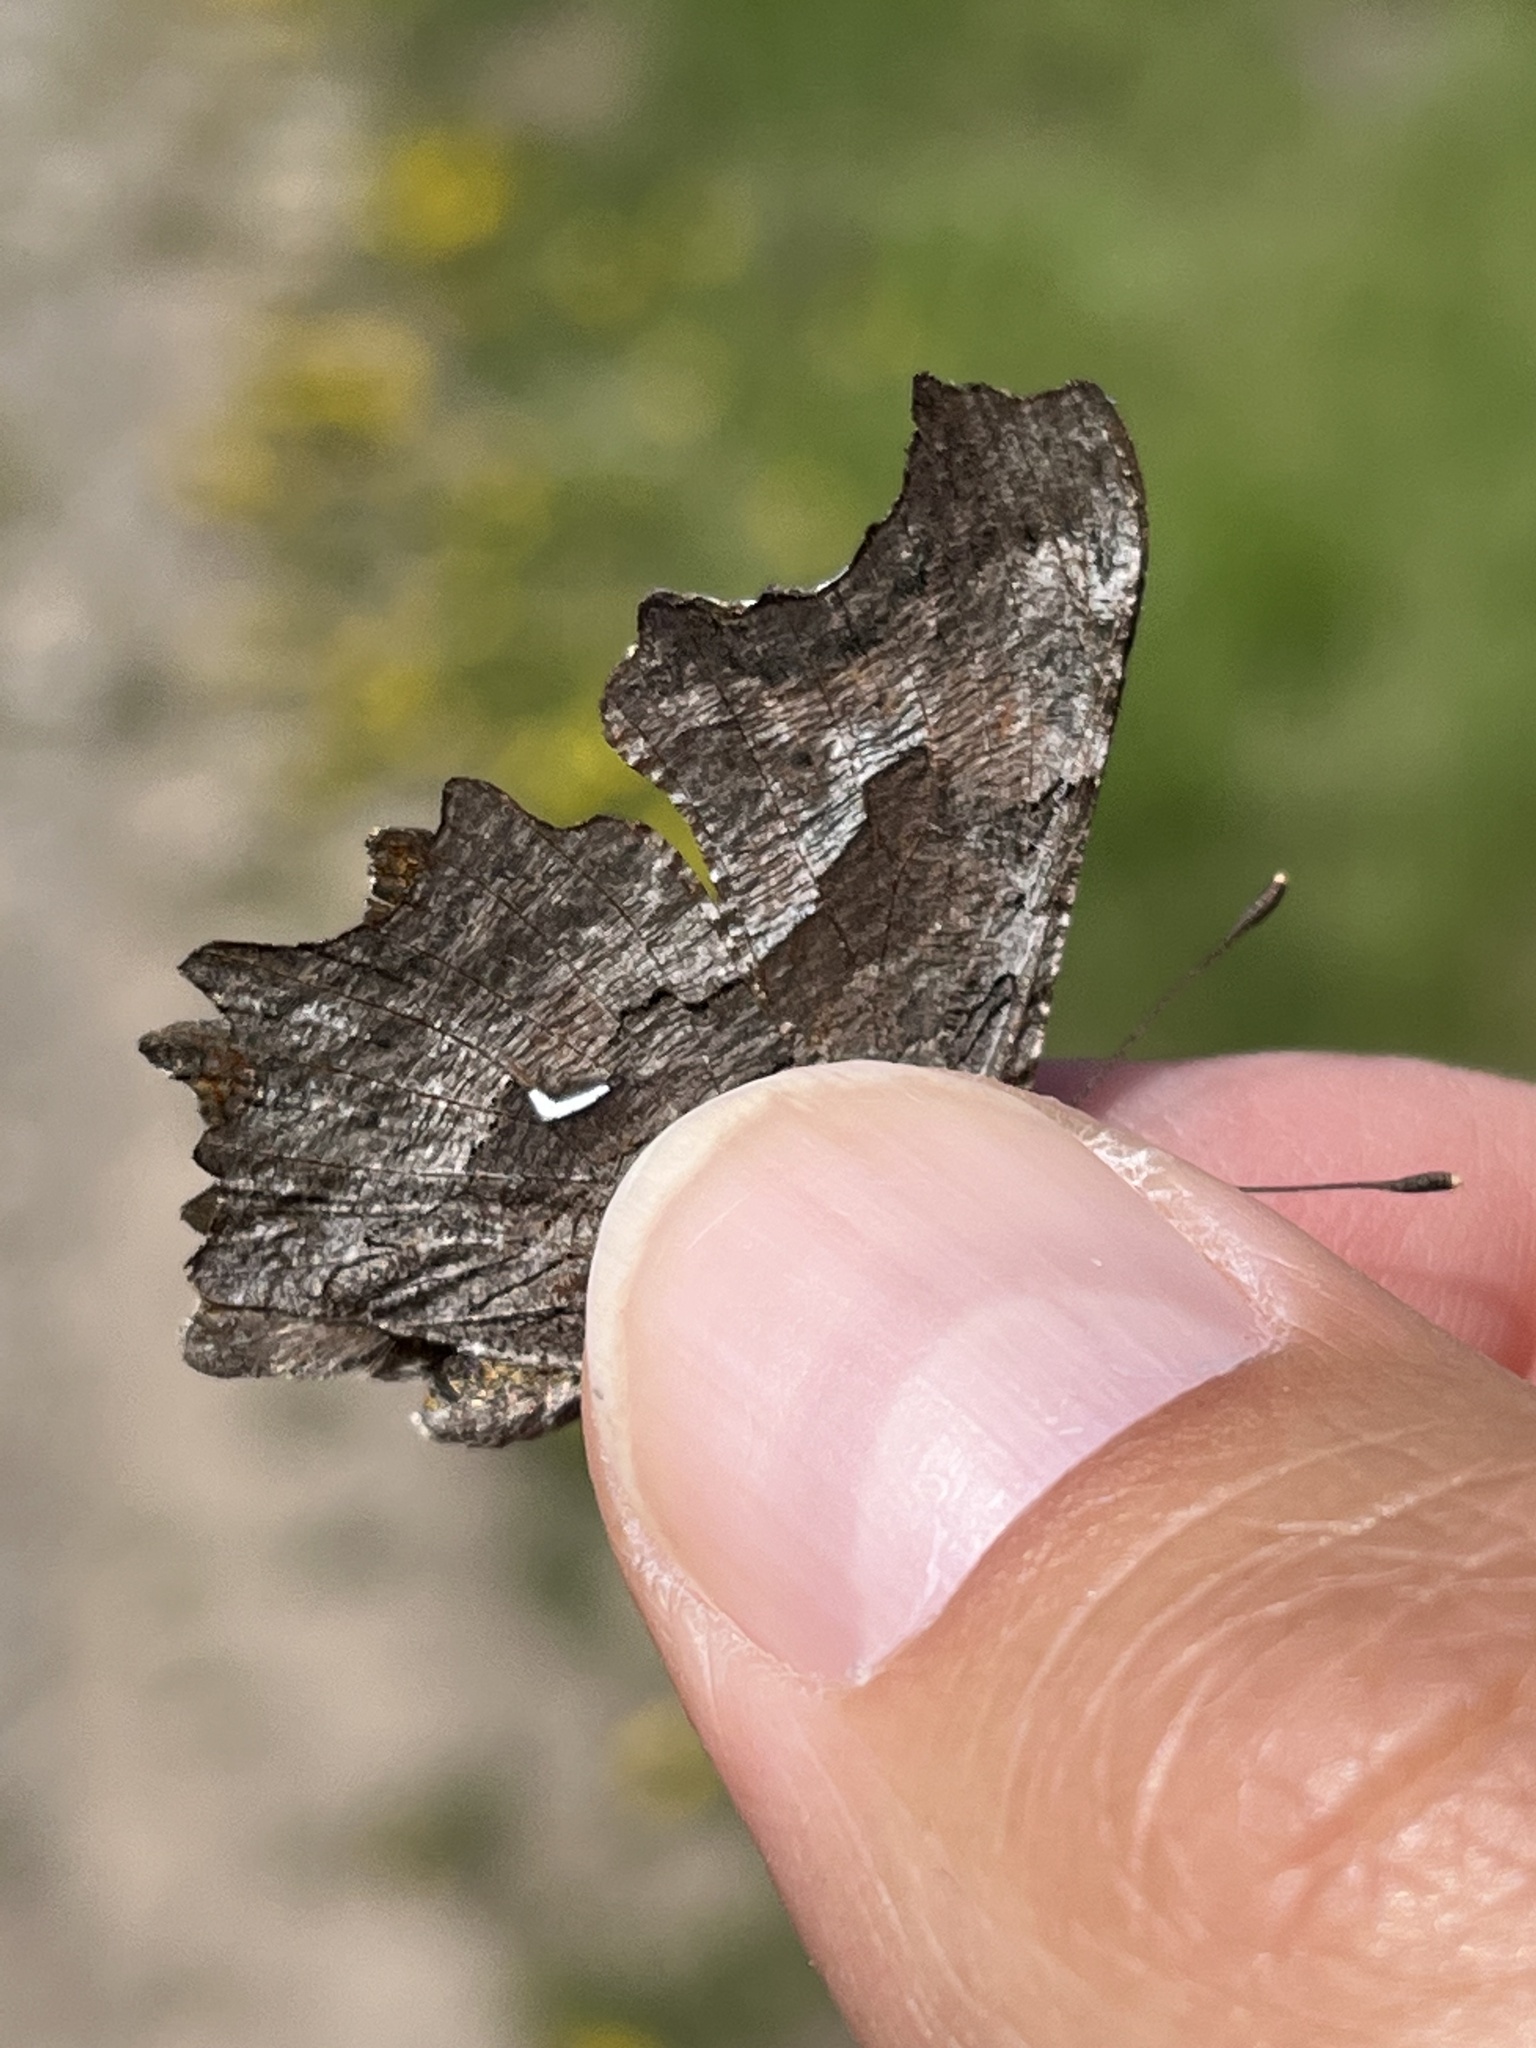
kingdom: Animalia
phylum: Arthropoda
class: Insecta
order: Lepidoptera
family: Nymphalidae
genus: Polygonia
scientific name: Polygonia gracilis
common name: Hoary comma
